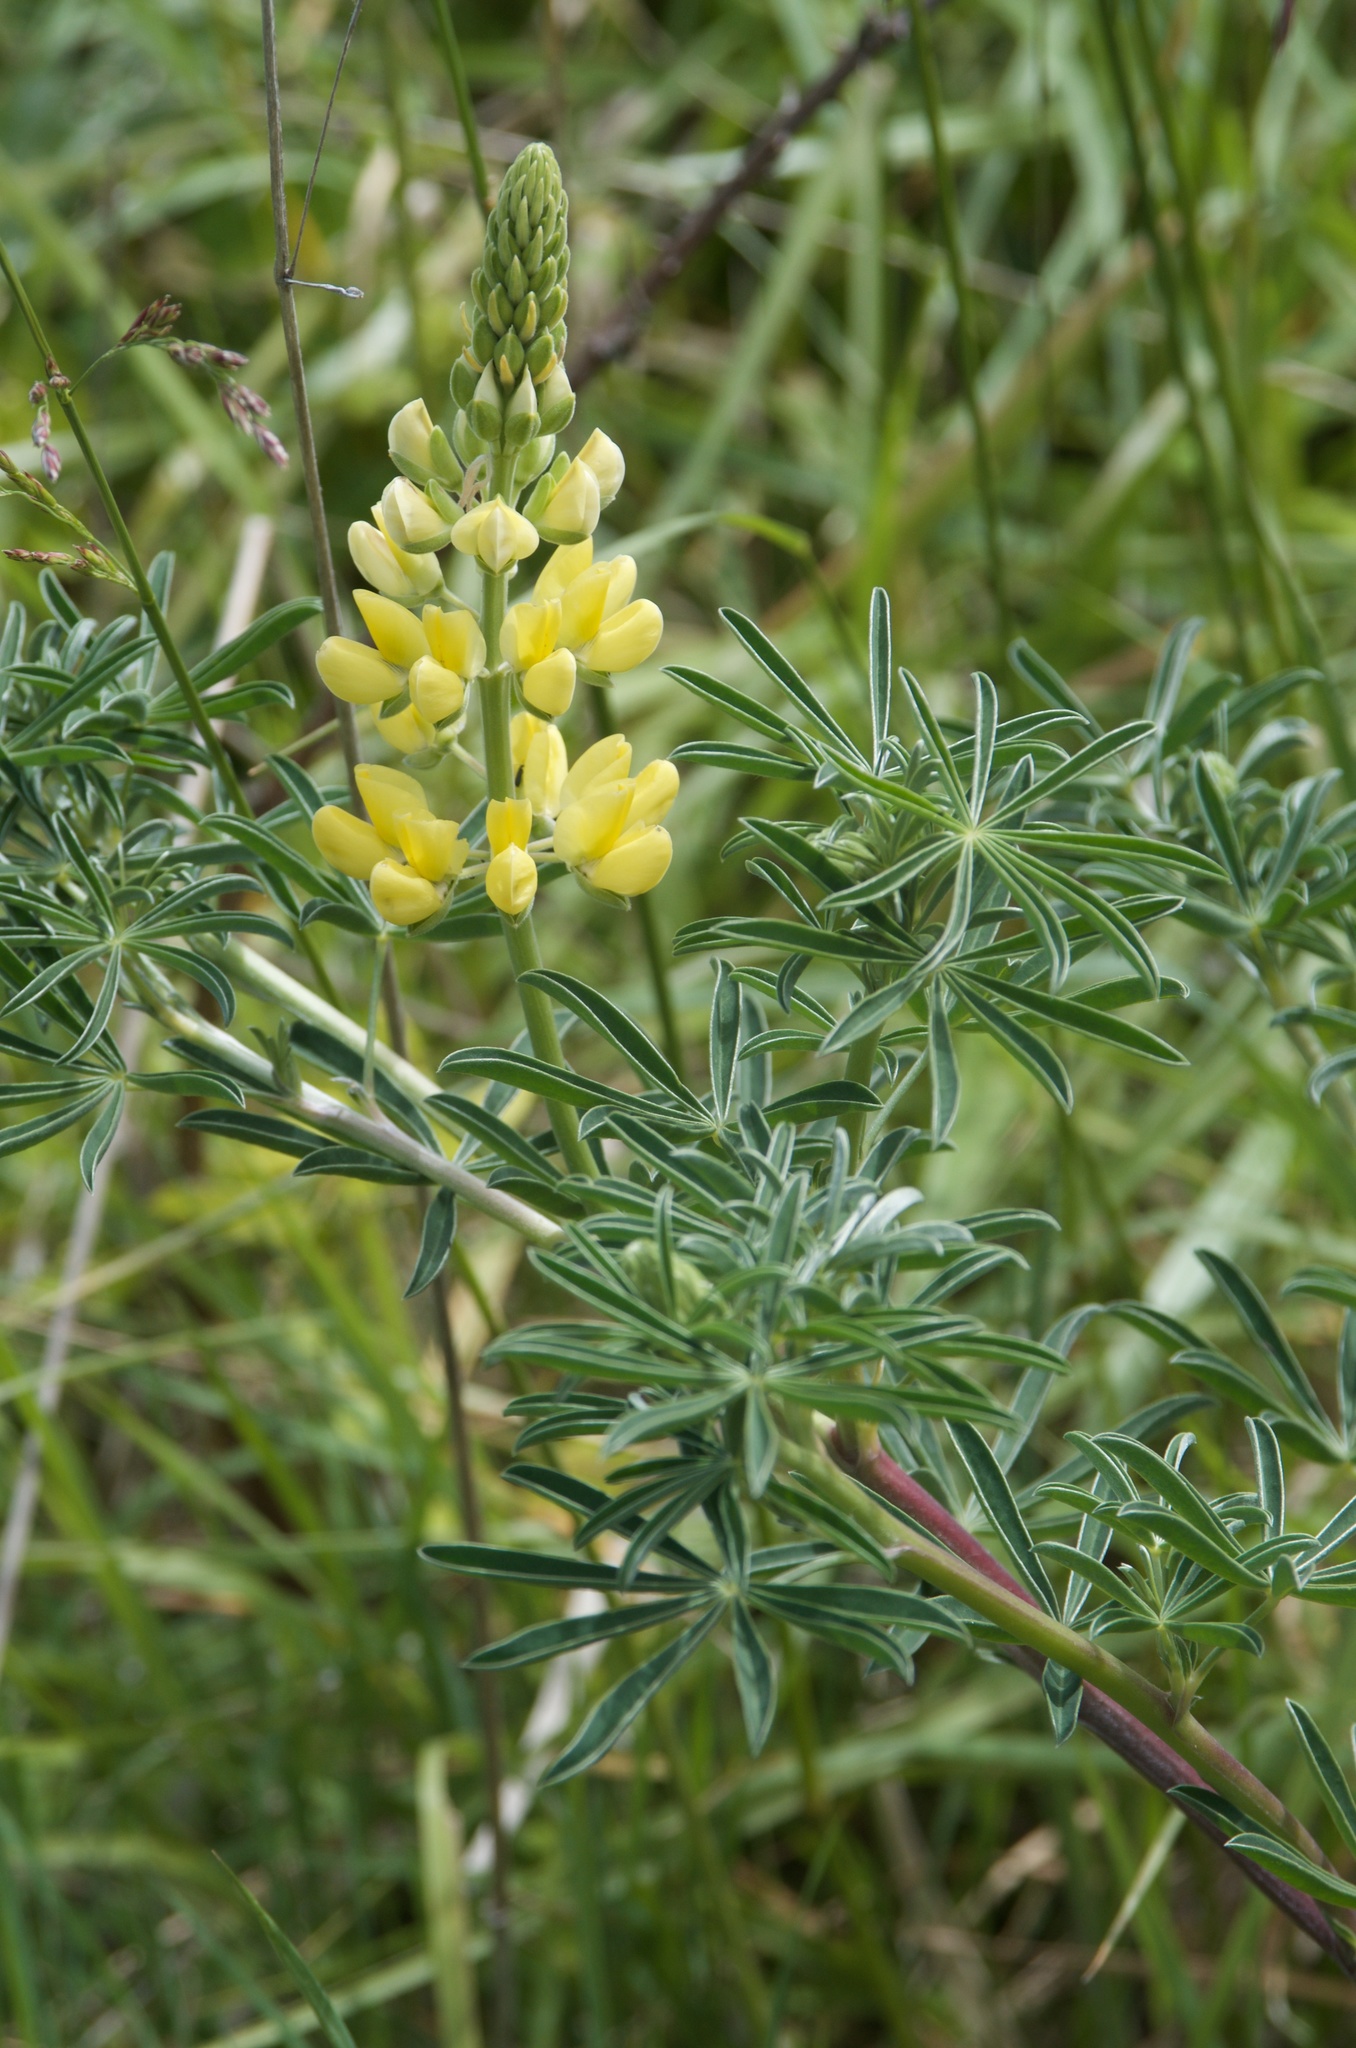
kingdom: Plantae
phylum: Tracheophyta
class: Magnoliopsida
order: Fabales
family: Fabaceae
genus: Lupinus
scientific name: Lupinus arboreus
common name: Yellow bush lupine
